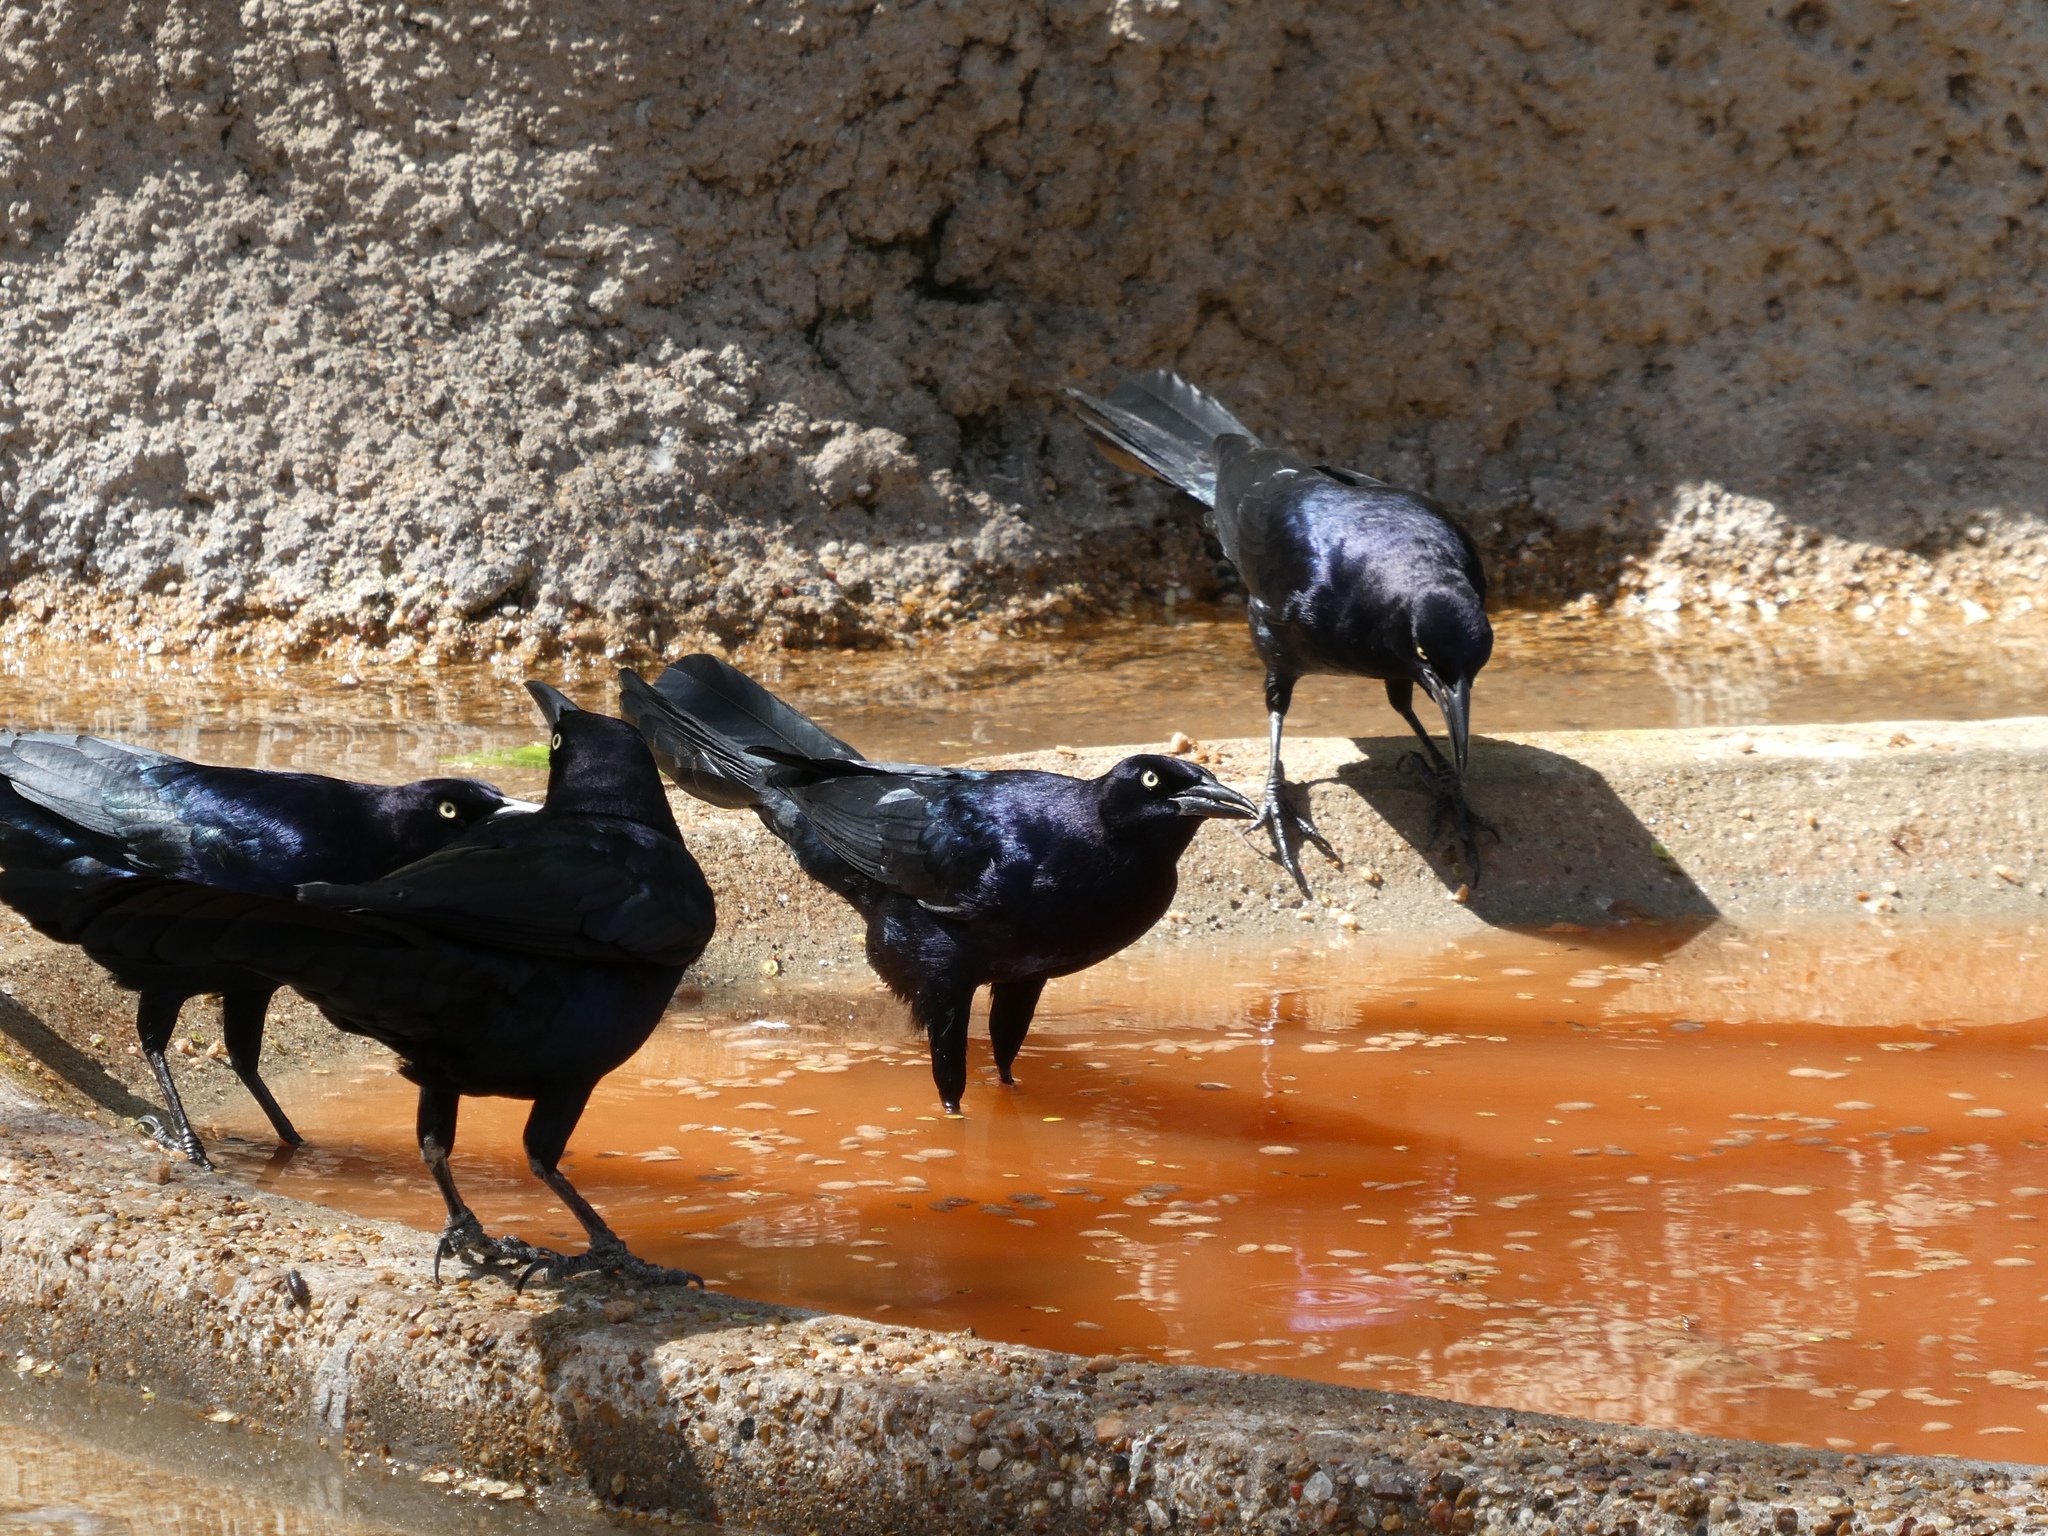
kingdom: Animalia
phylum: Chordata
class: Aves
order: Passeriformes
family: Icteridae
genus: Quiscalus
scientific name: Quiscalus mexicanus
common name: Great-tailed grackle
